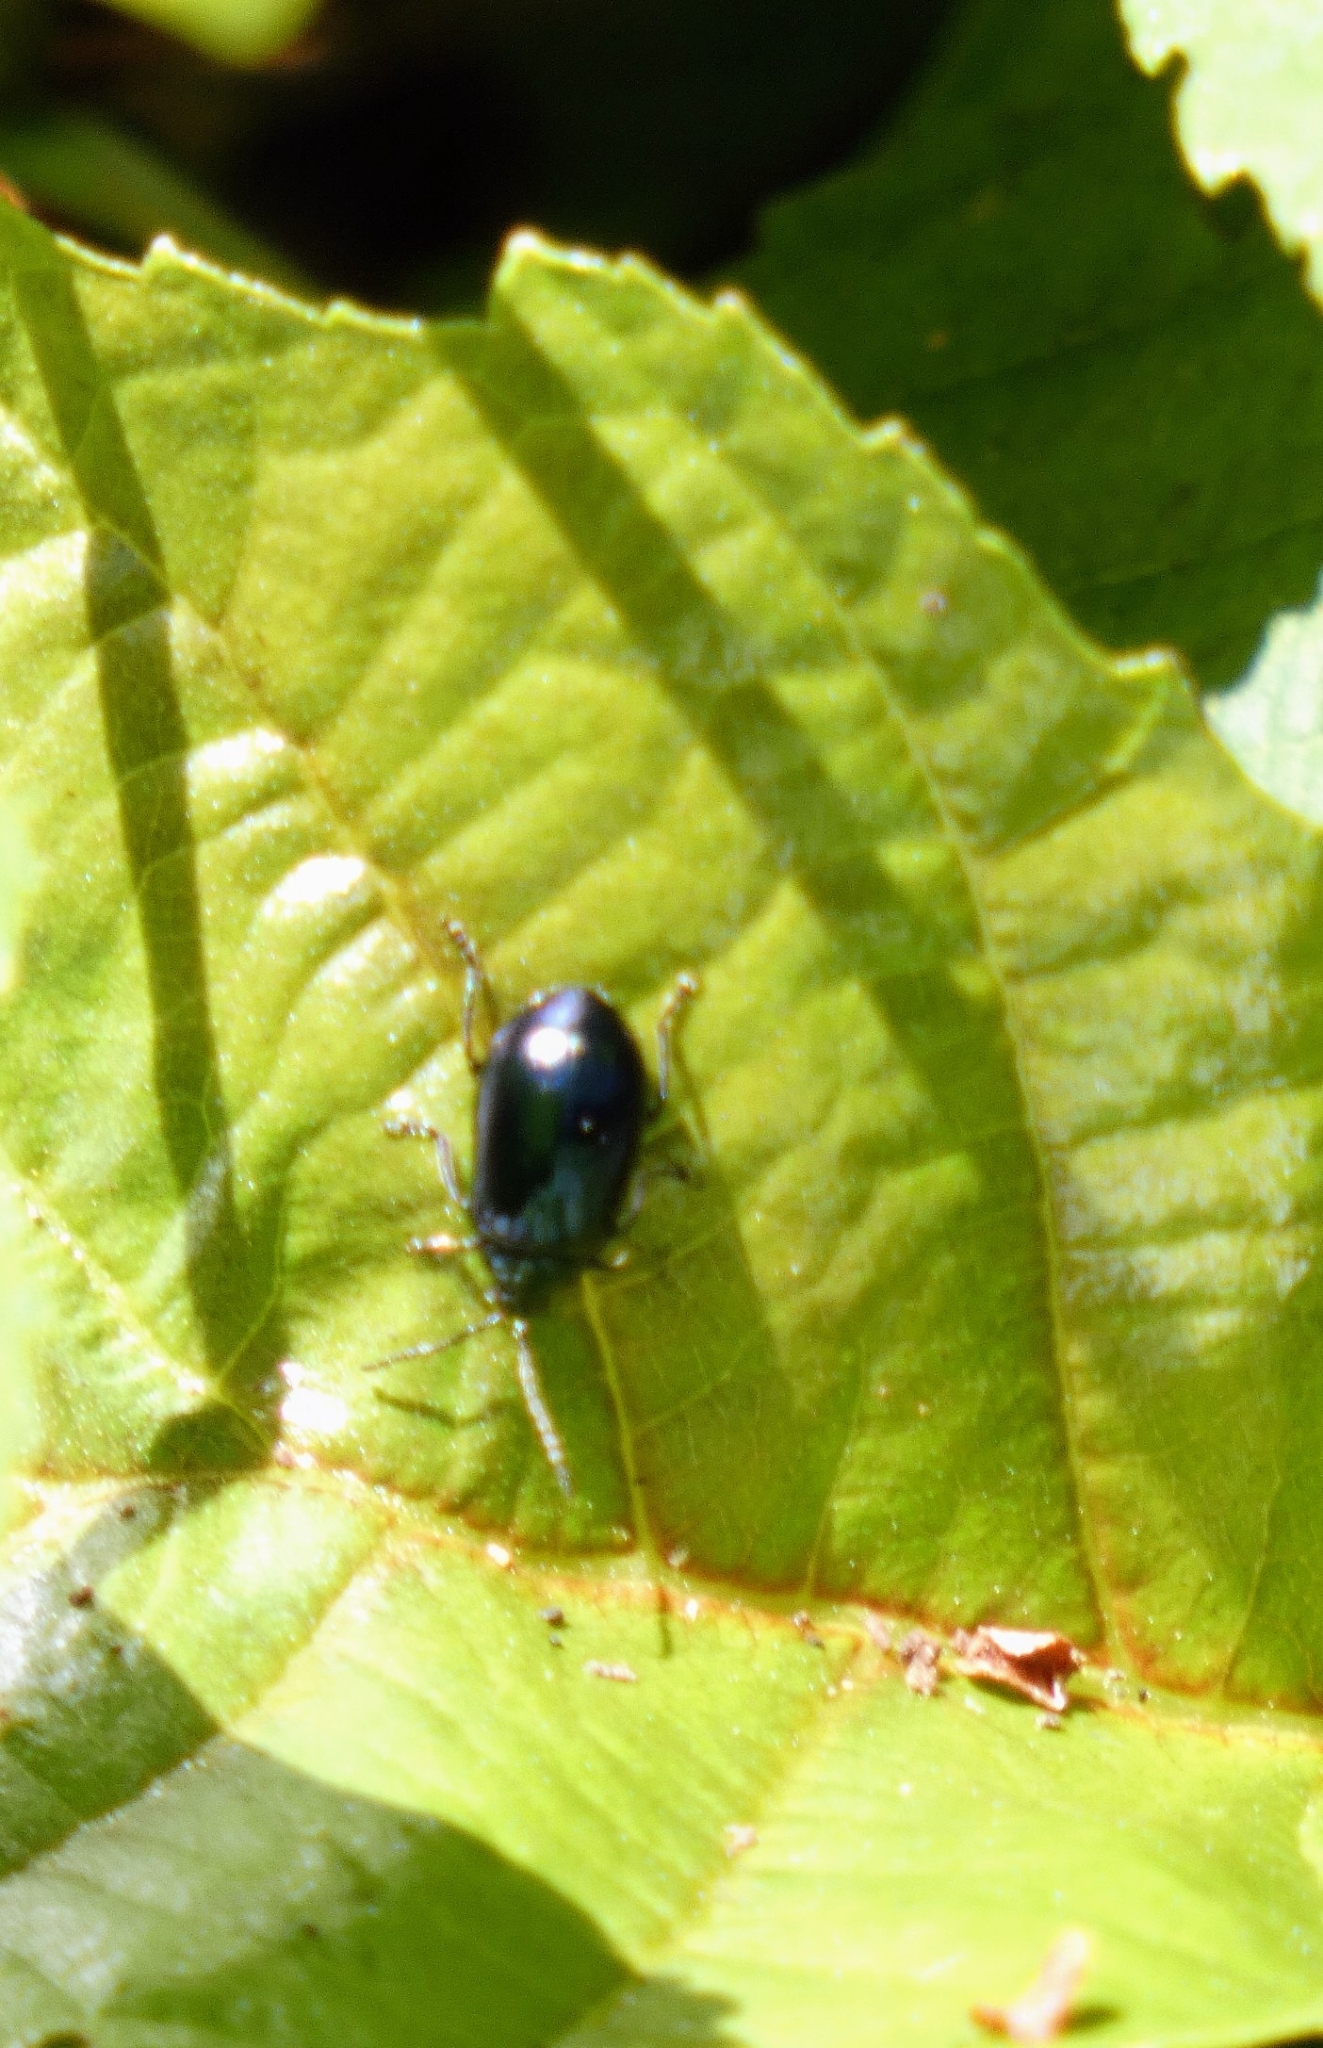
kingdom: Animalia
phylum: Arthropoda
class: Insecta
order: Coleoptera
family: Chrysomelidae
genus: Agelastica
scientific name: Agelastica alni
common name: Alder leaf beetle
